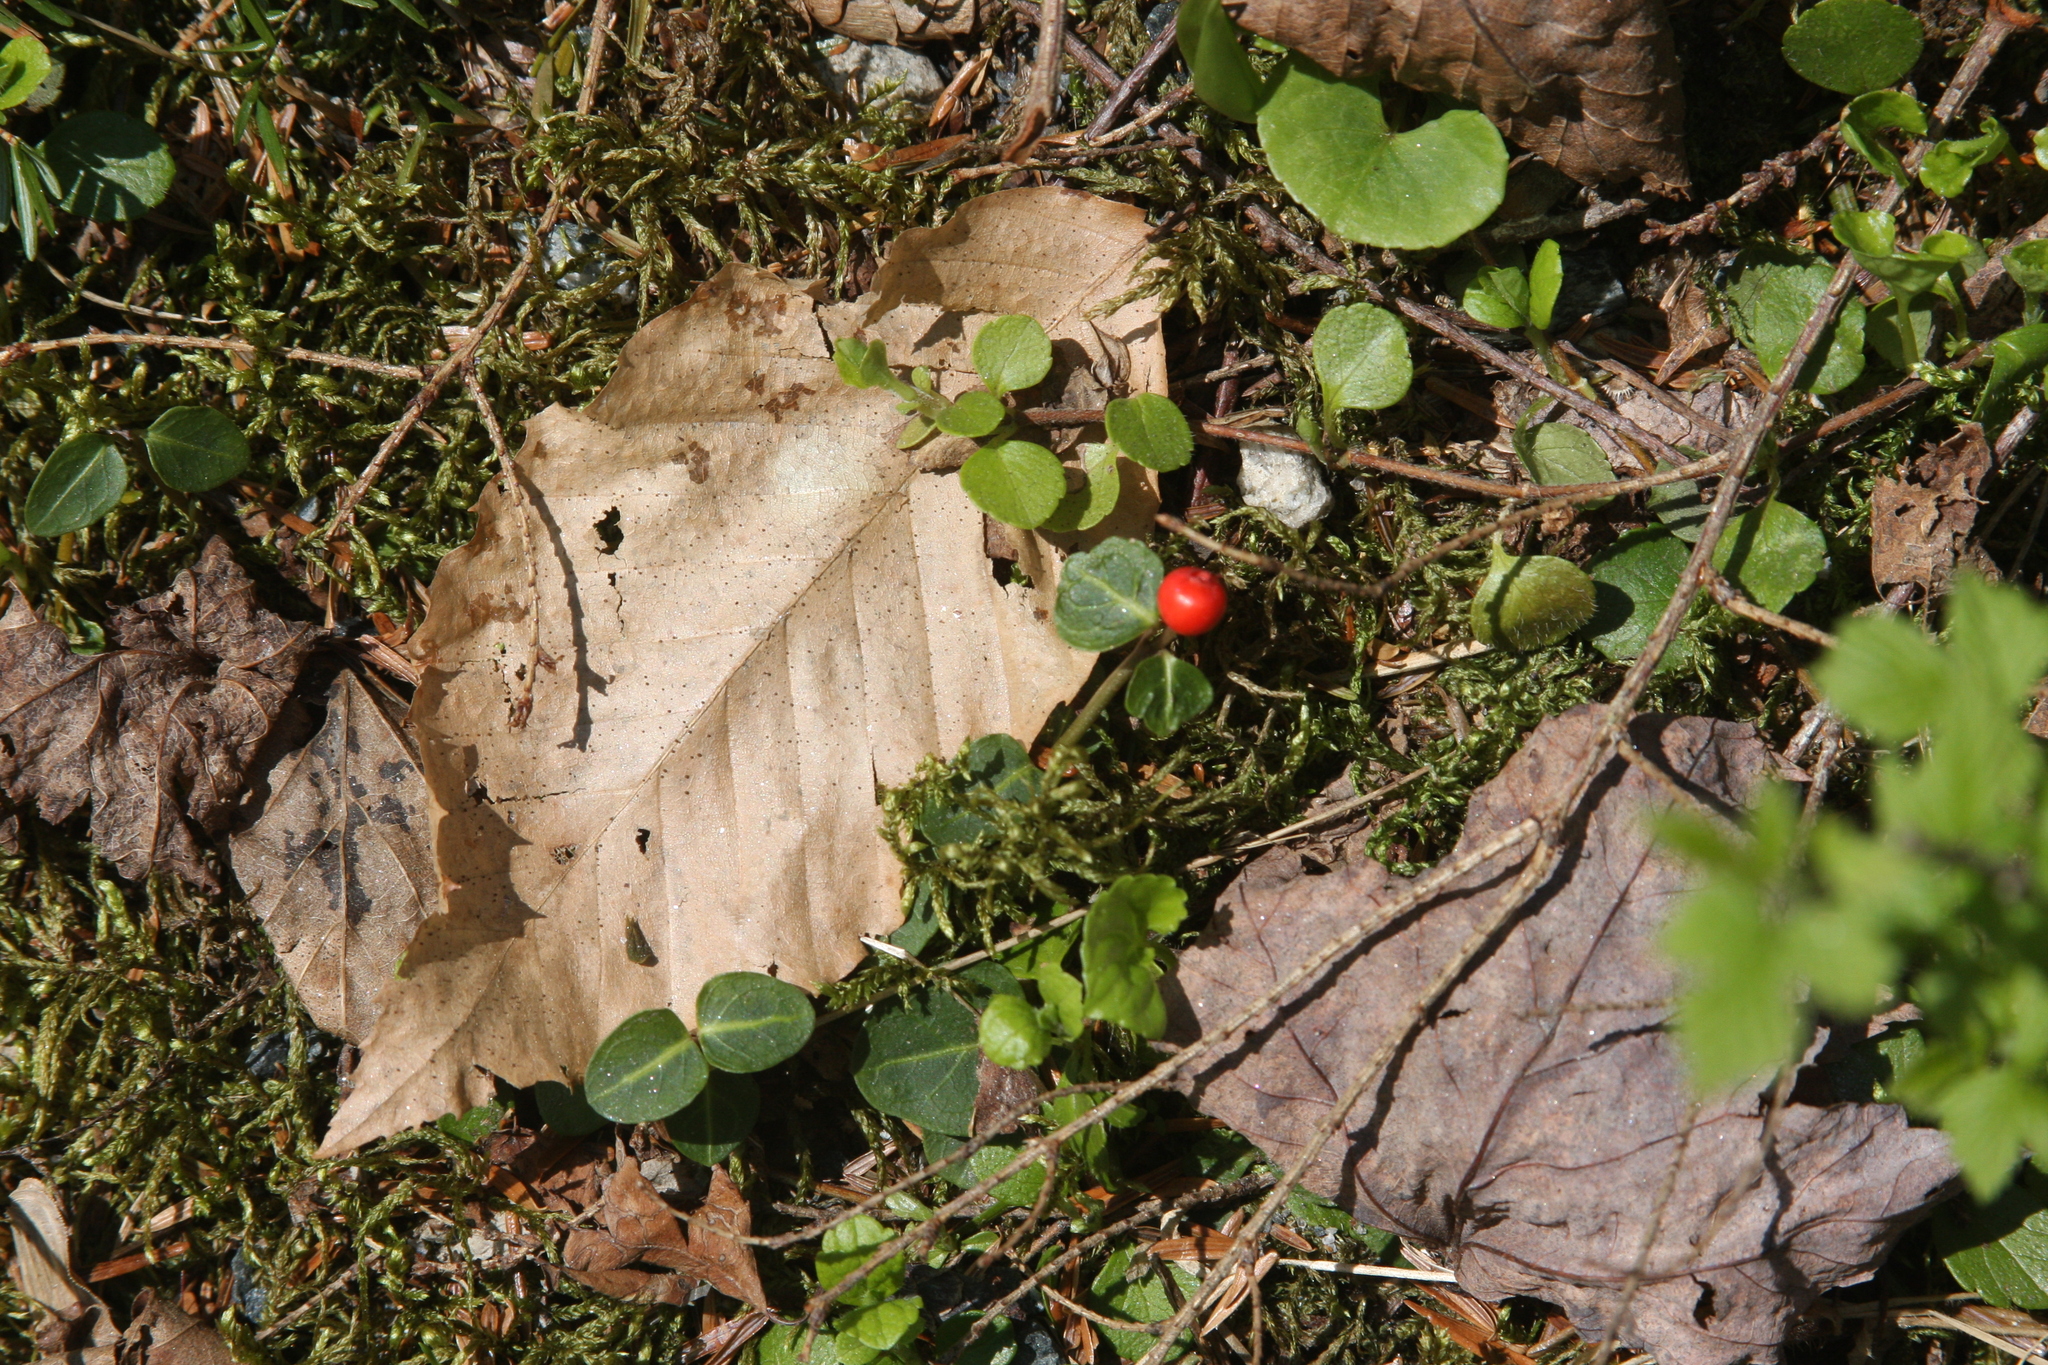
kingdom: Plantae
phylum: Tracheophyta
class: Magnoliopsida
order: Gentianales
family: Rubiaceae
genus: Mitchella
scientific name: Mitchella repens
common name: Partridge-berry
